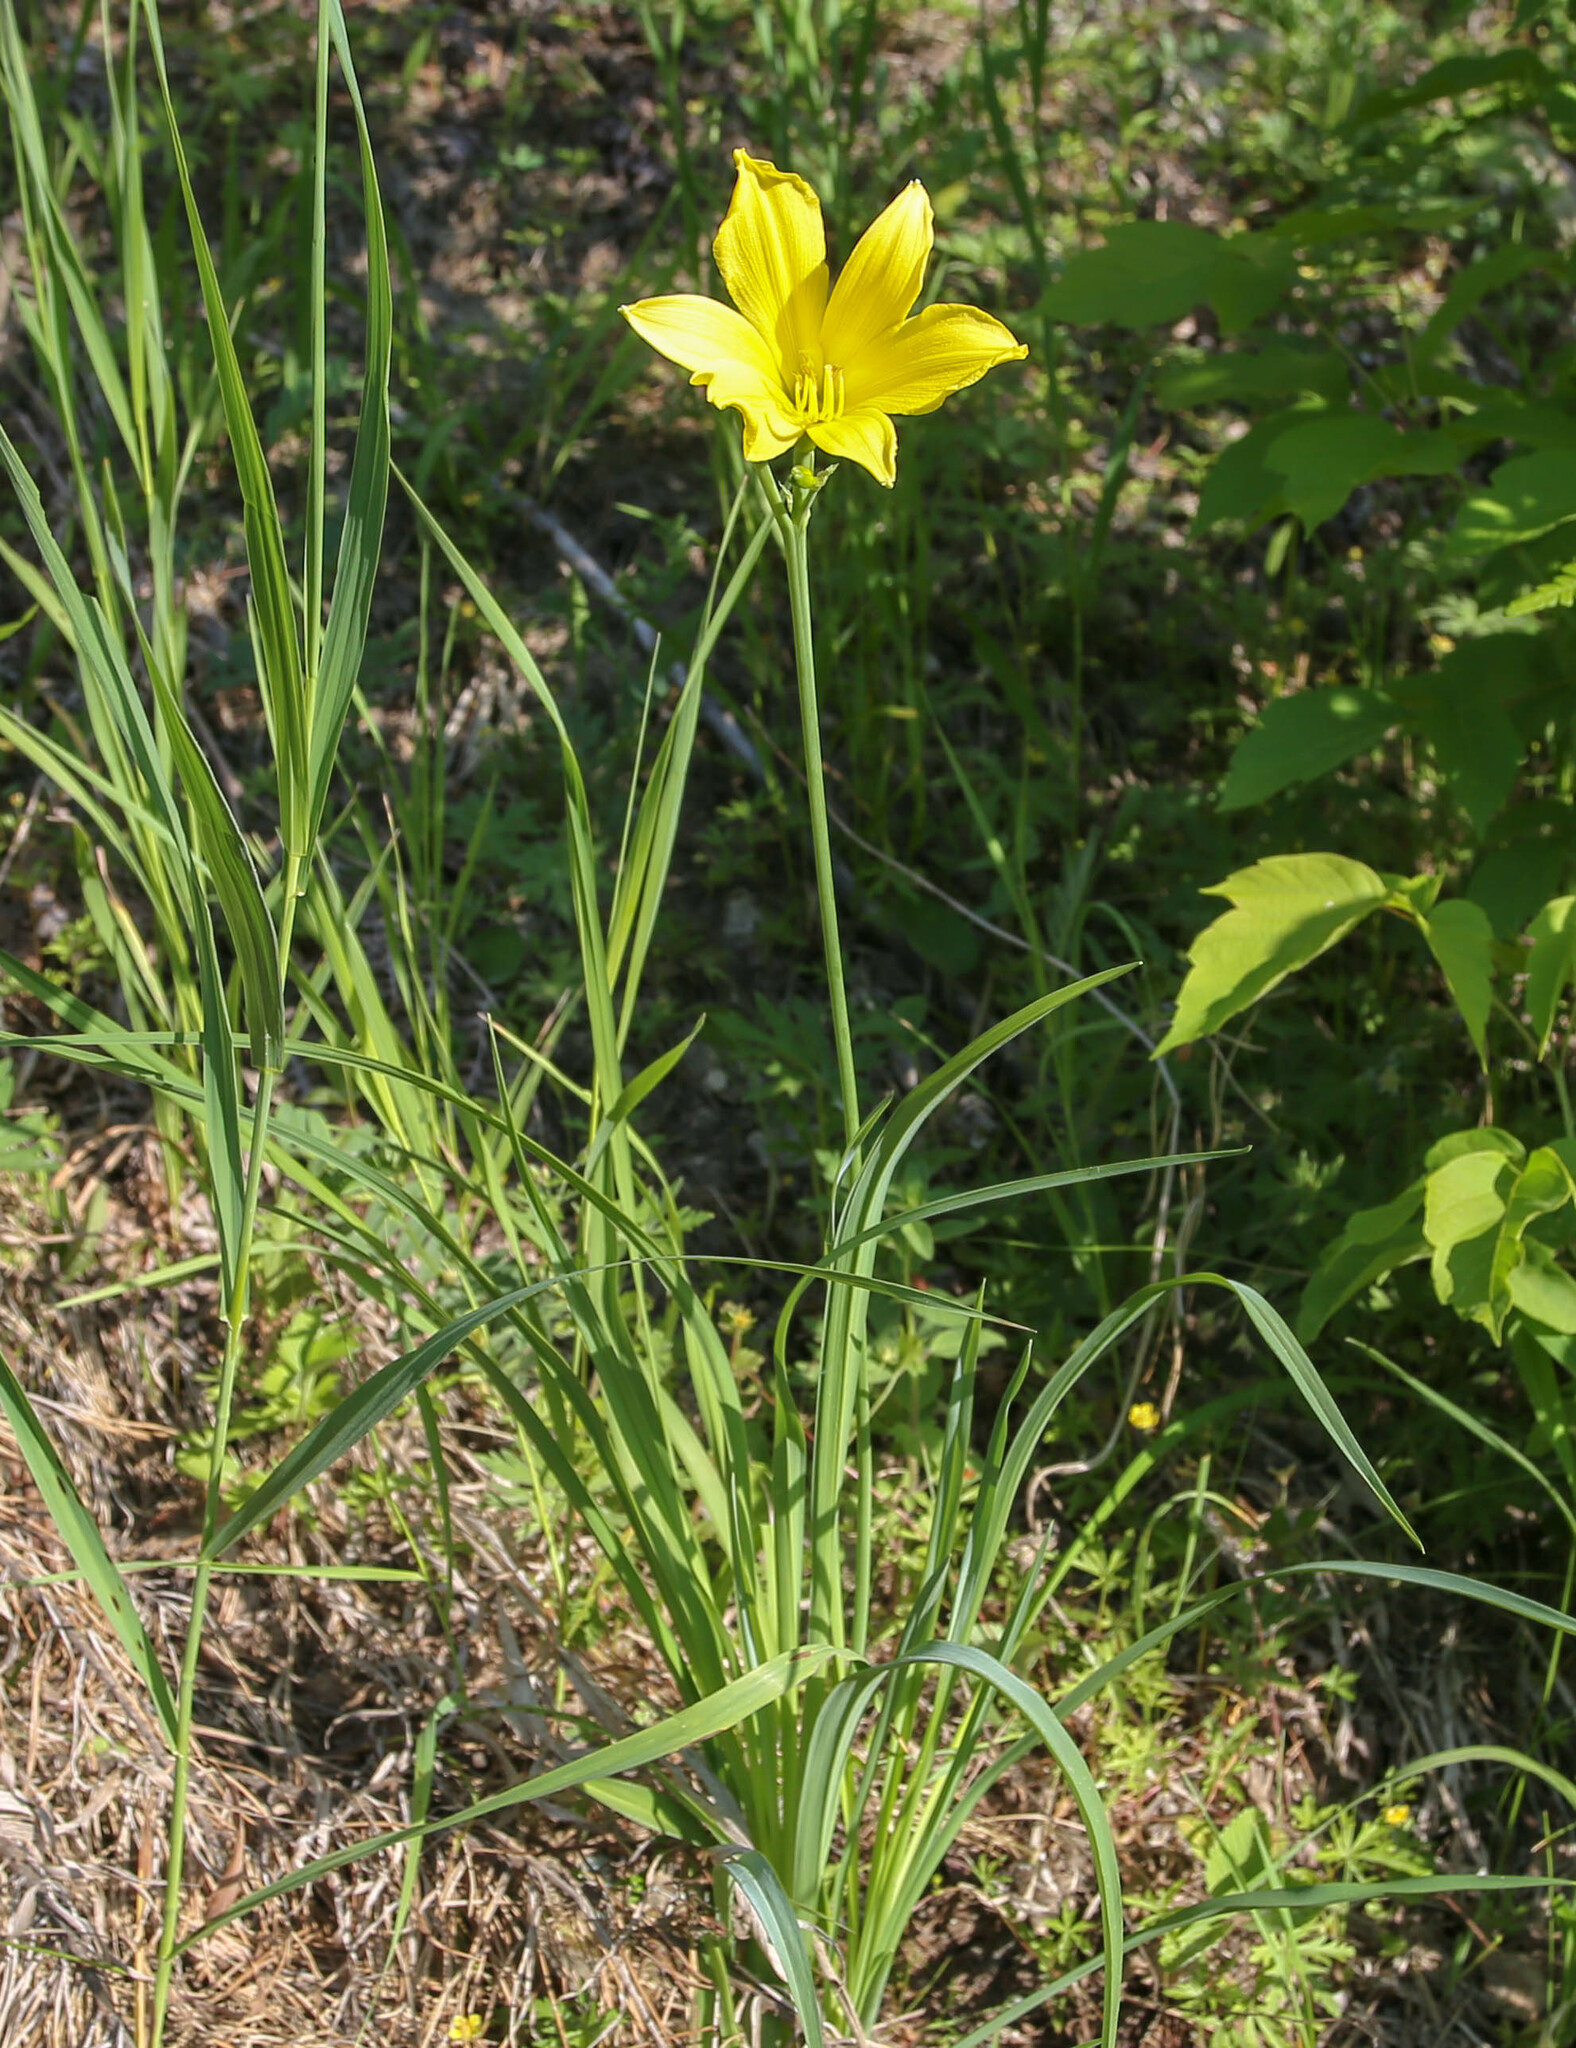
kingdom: Plantae
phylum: Tracheophyta
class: Liliopsida
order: Asparagales
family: Asphodelaceae
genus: Hemerocallis
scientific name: Hemerocallis minor
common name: Small daylily
